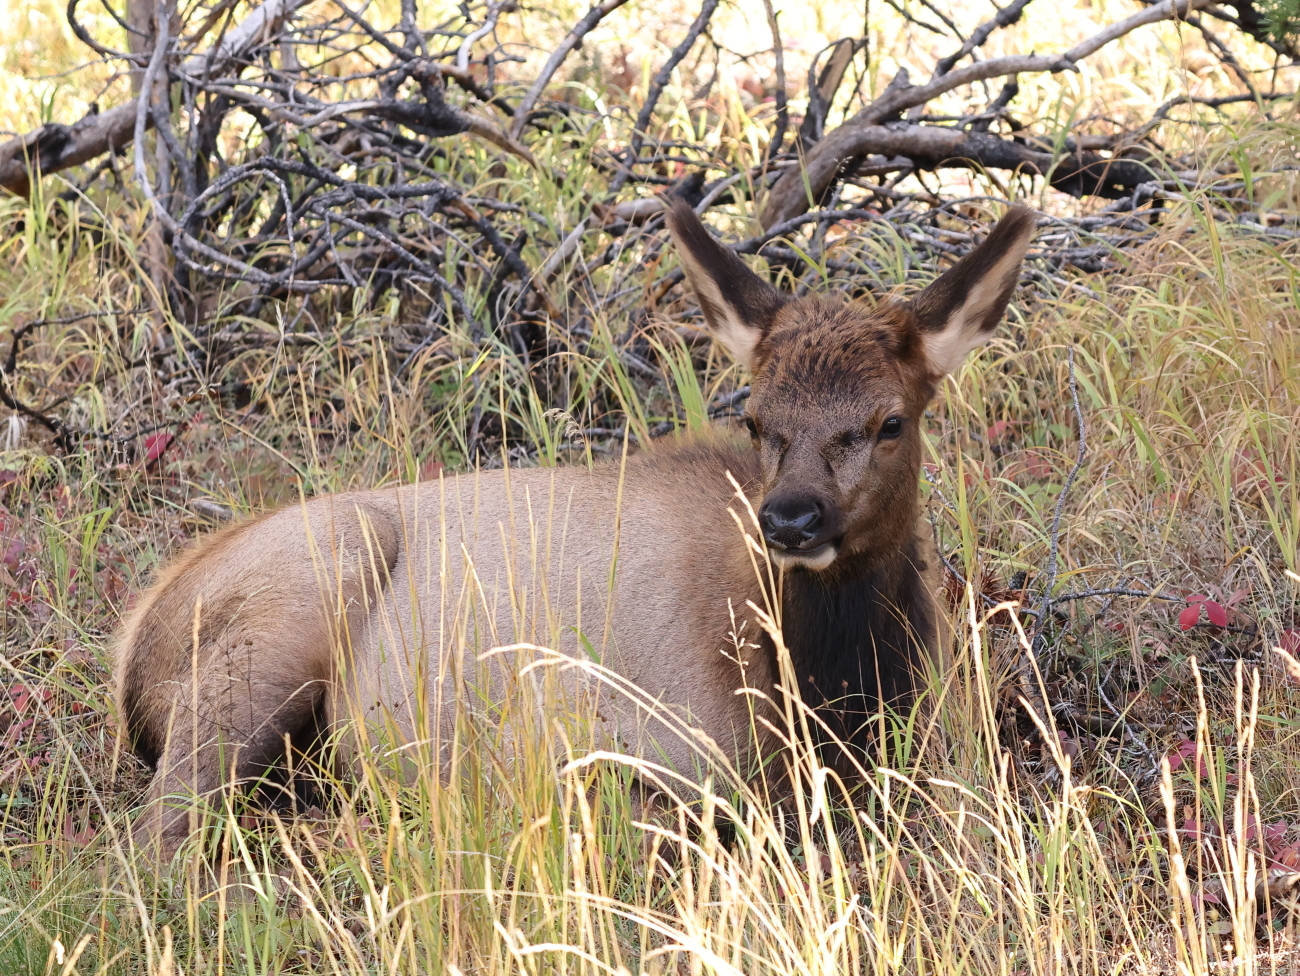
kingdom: Animalia
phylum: Chordata
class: Mammalia
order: Artiodactyla
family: Cervidae
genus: Cervus
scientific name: Cervus elaphus
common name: Red deer
